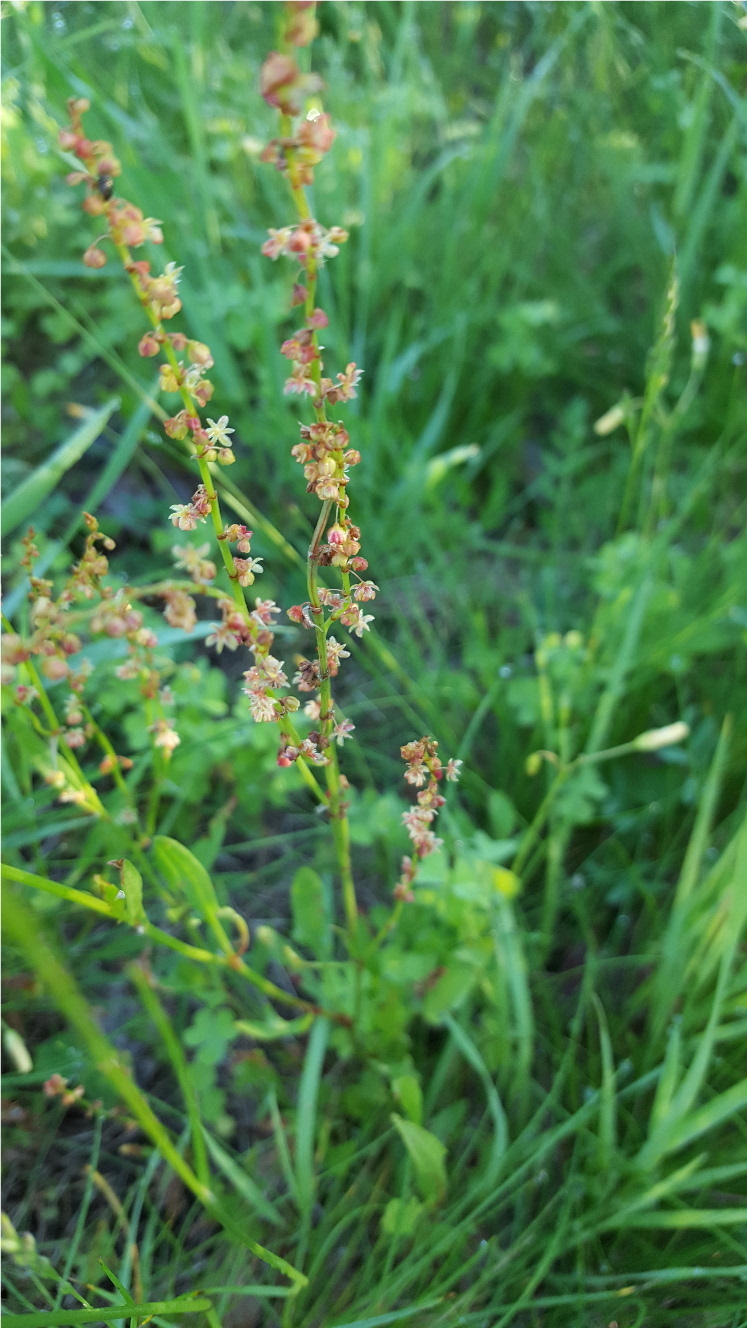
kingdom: Plantae
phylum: Tracheophyta
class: Magnoliopsida
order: Caryophyllales
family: Polygonaceae
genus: Rumex
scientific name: Rumex acetosella
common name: Common sheep sorrel
